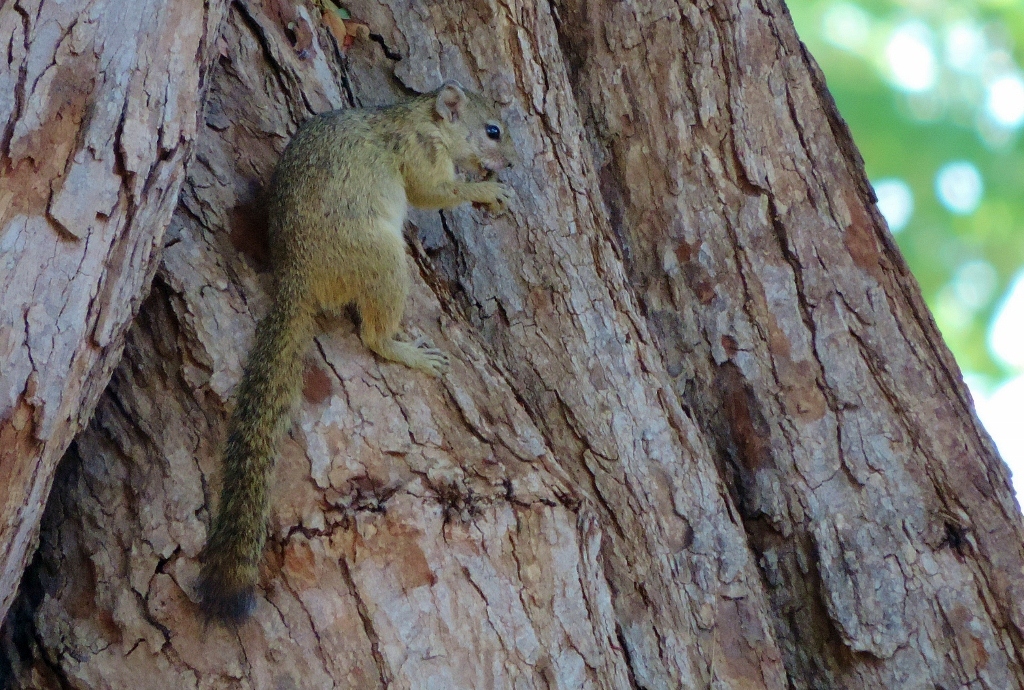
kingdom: Animalia
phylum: Chordata
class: Mammalia
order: Rodentia
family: Sciuridae
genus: Paraxerus
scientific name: Paraxerus cepapi
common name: Smith's bush squirrel
